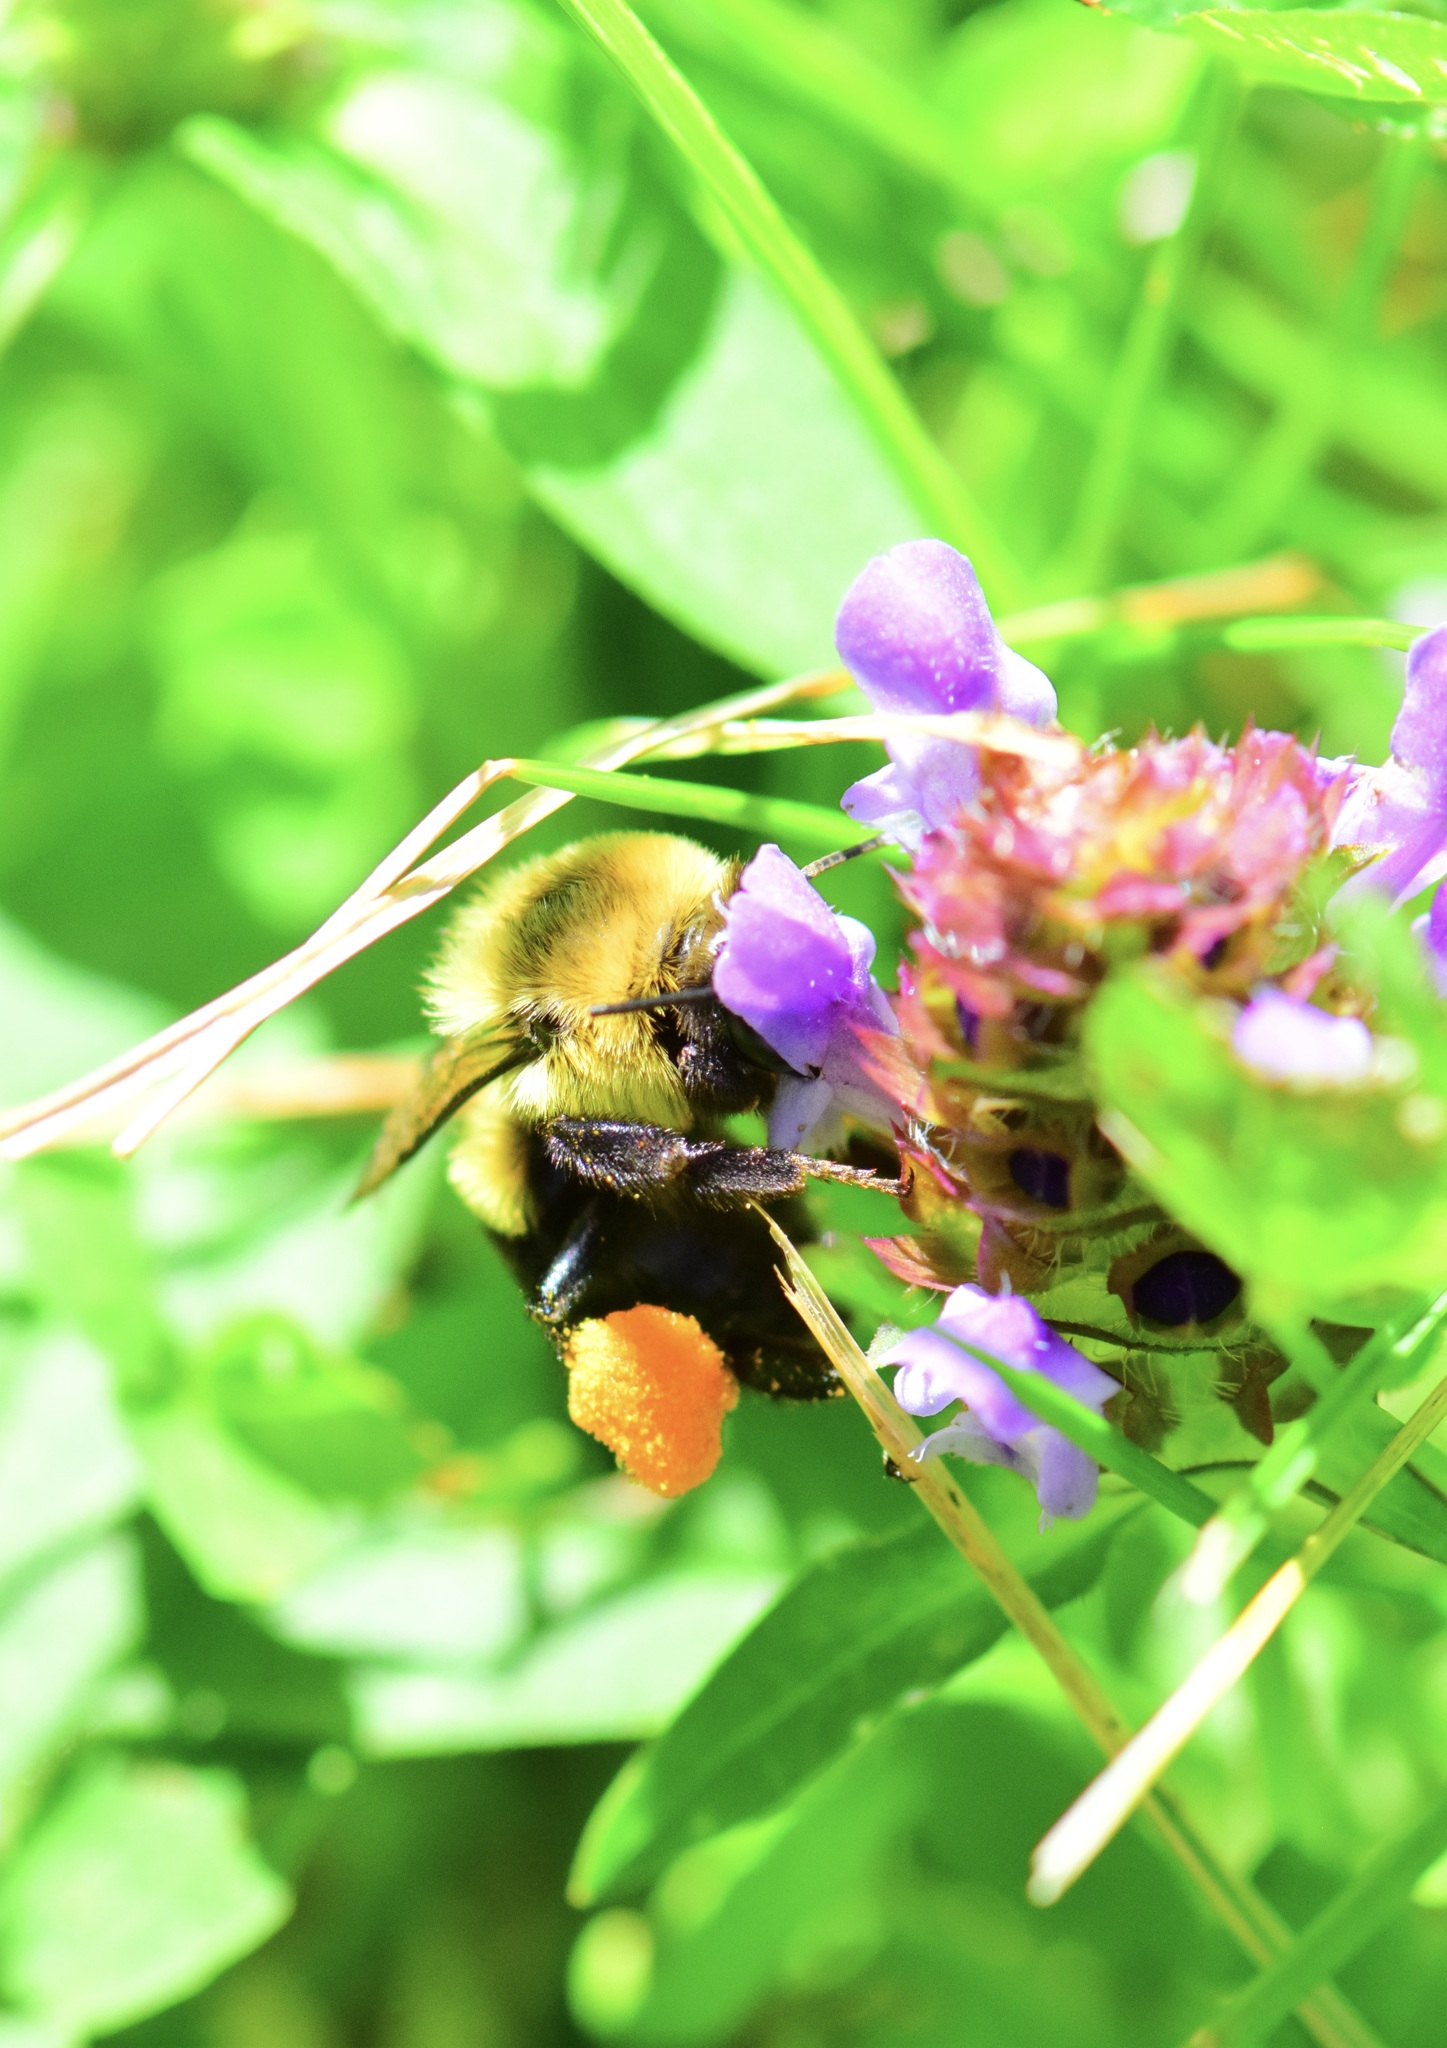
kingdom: Animalia
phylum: Arthropoda
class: Insecta
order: Hymenoptera
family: Apidae
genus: Bombus
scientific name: Bombus impatiens
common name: Common eastern bumble bee
